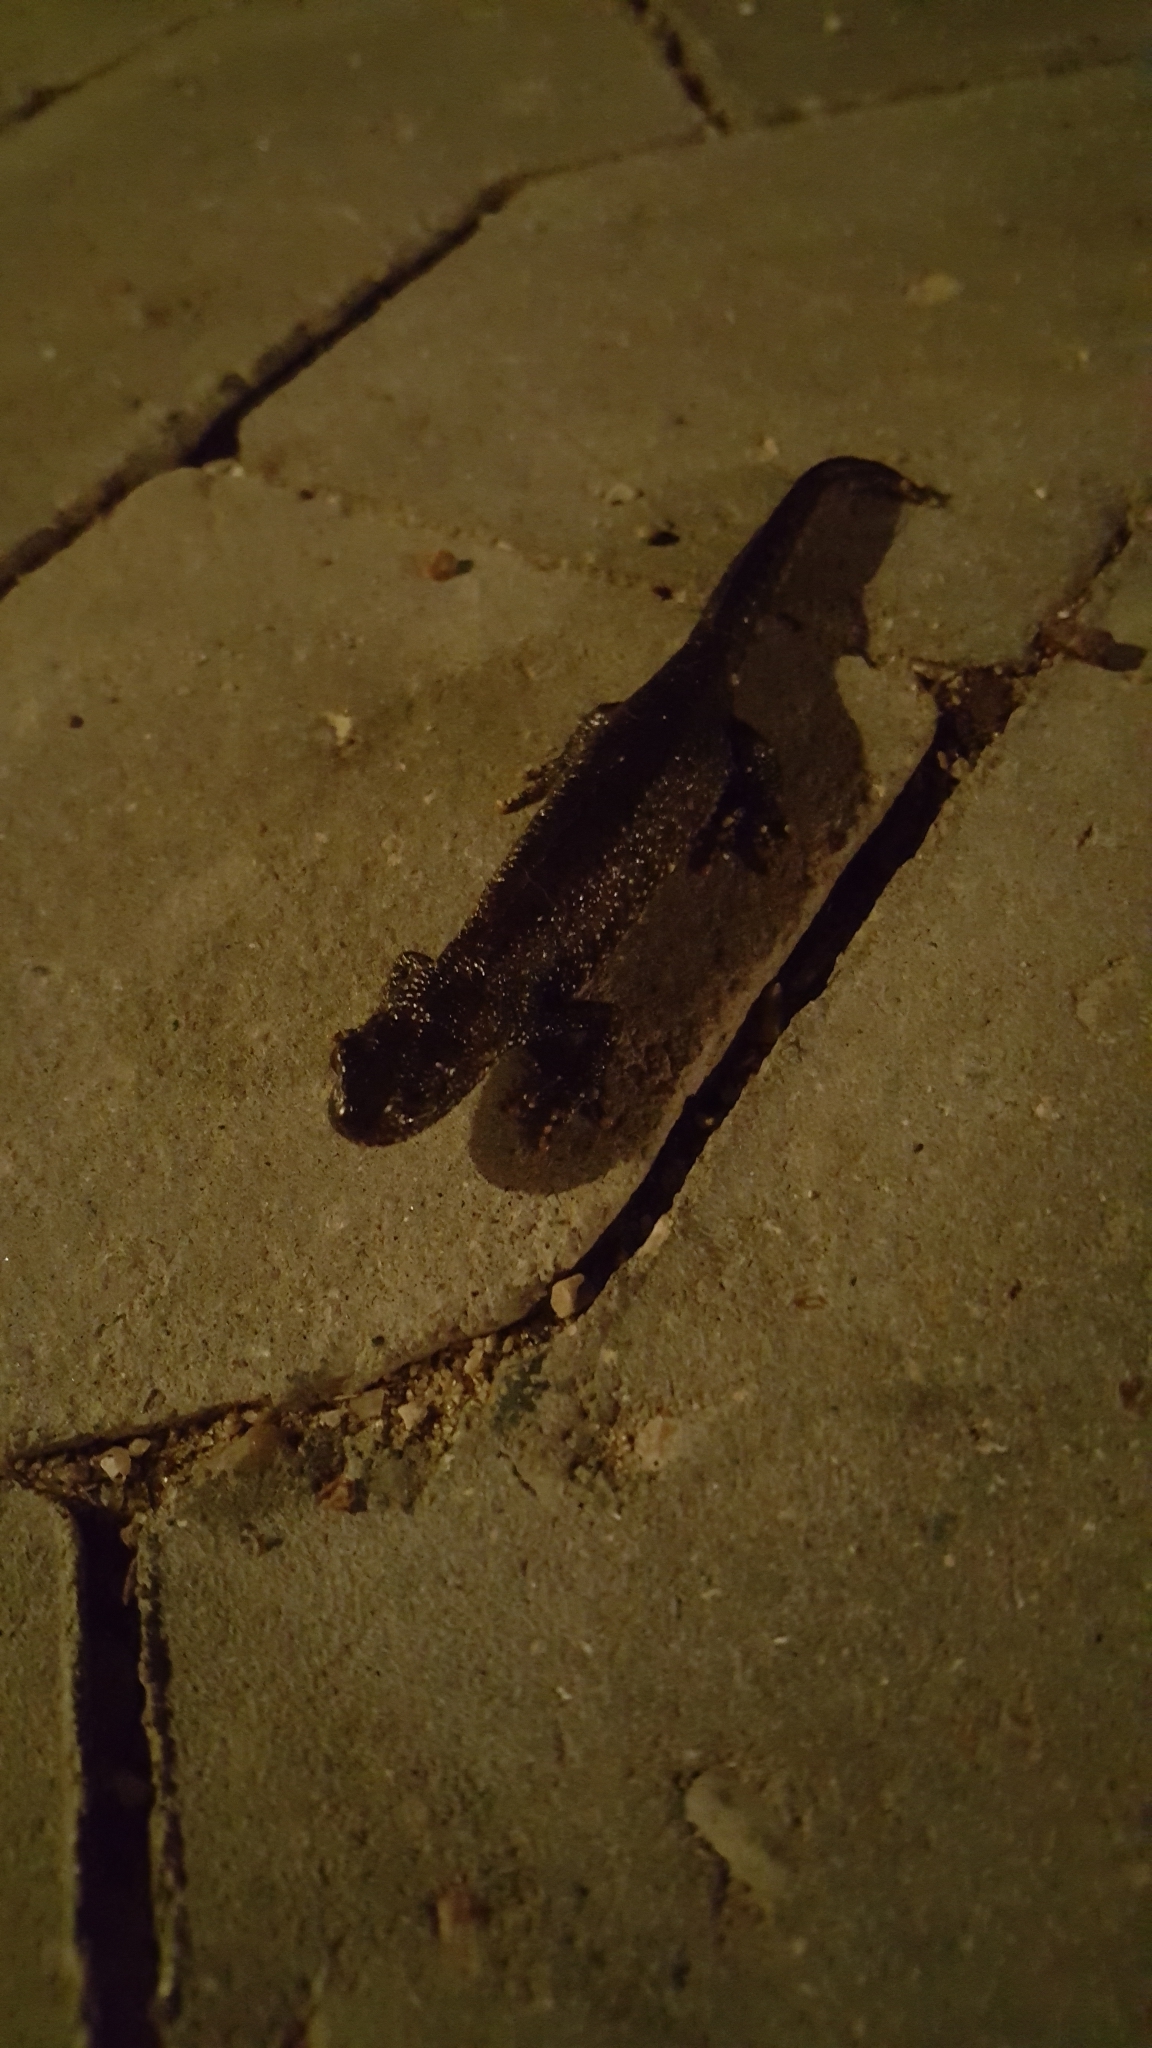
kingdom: Animalia
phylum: Chordata
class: Amphibia
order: Caudata
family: Salamandridae
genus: Triturus
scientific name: Triturus cristatus
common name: Crested newt
